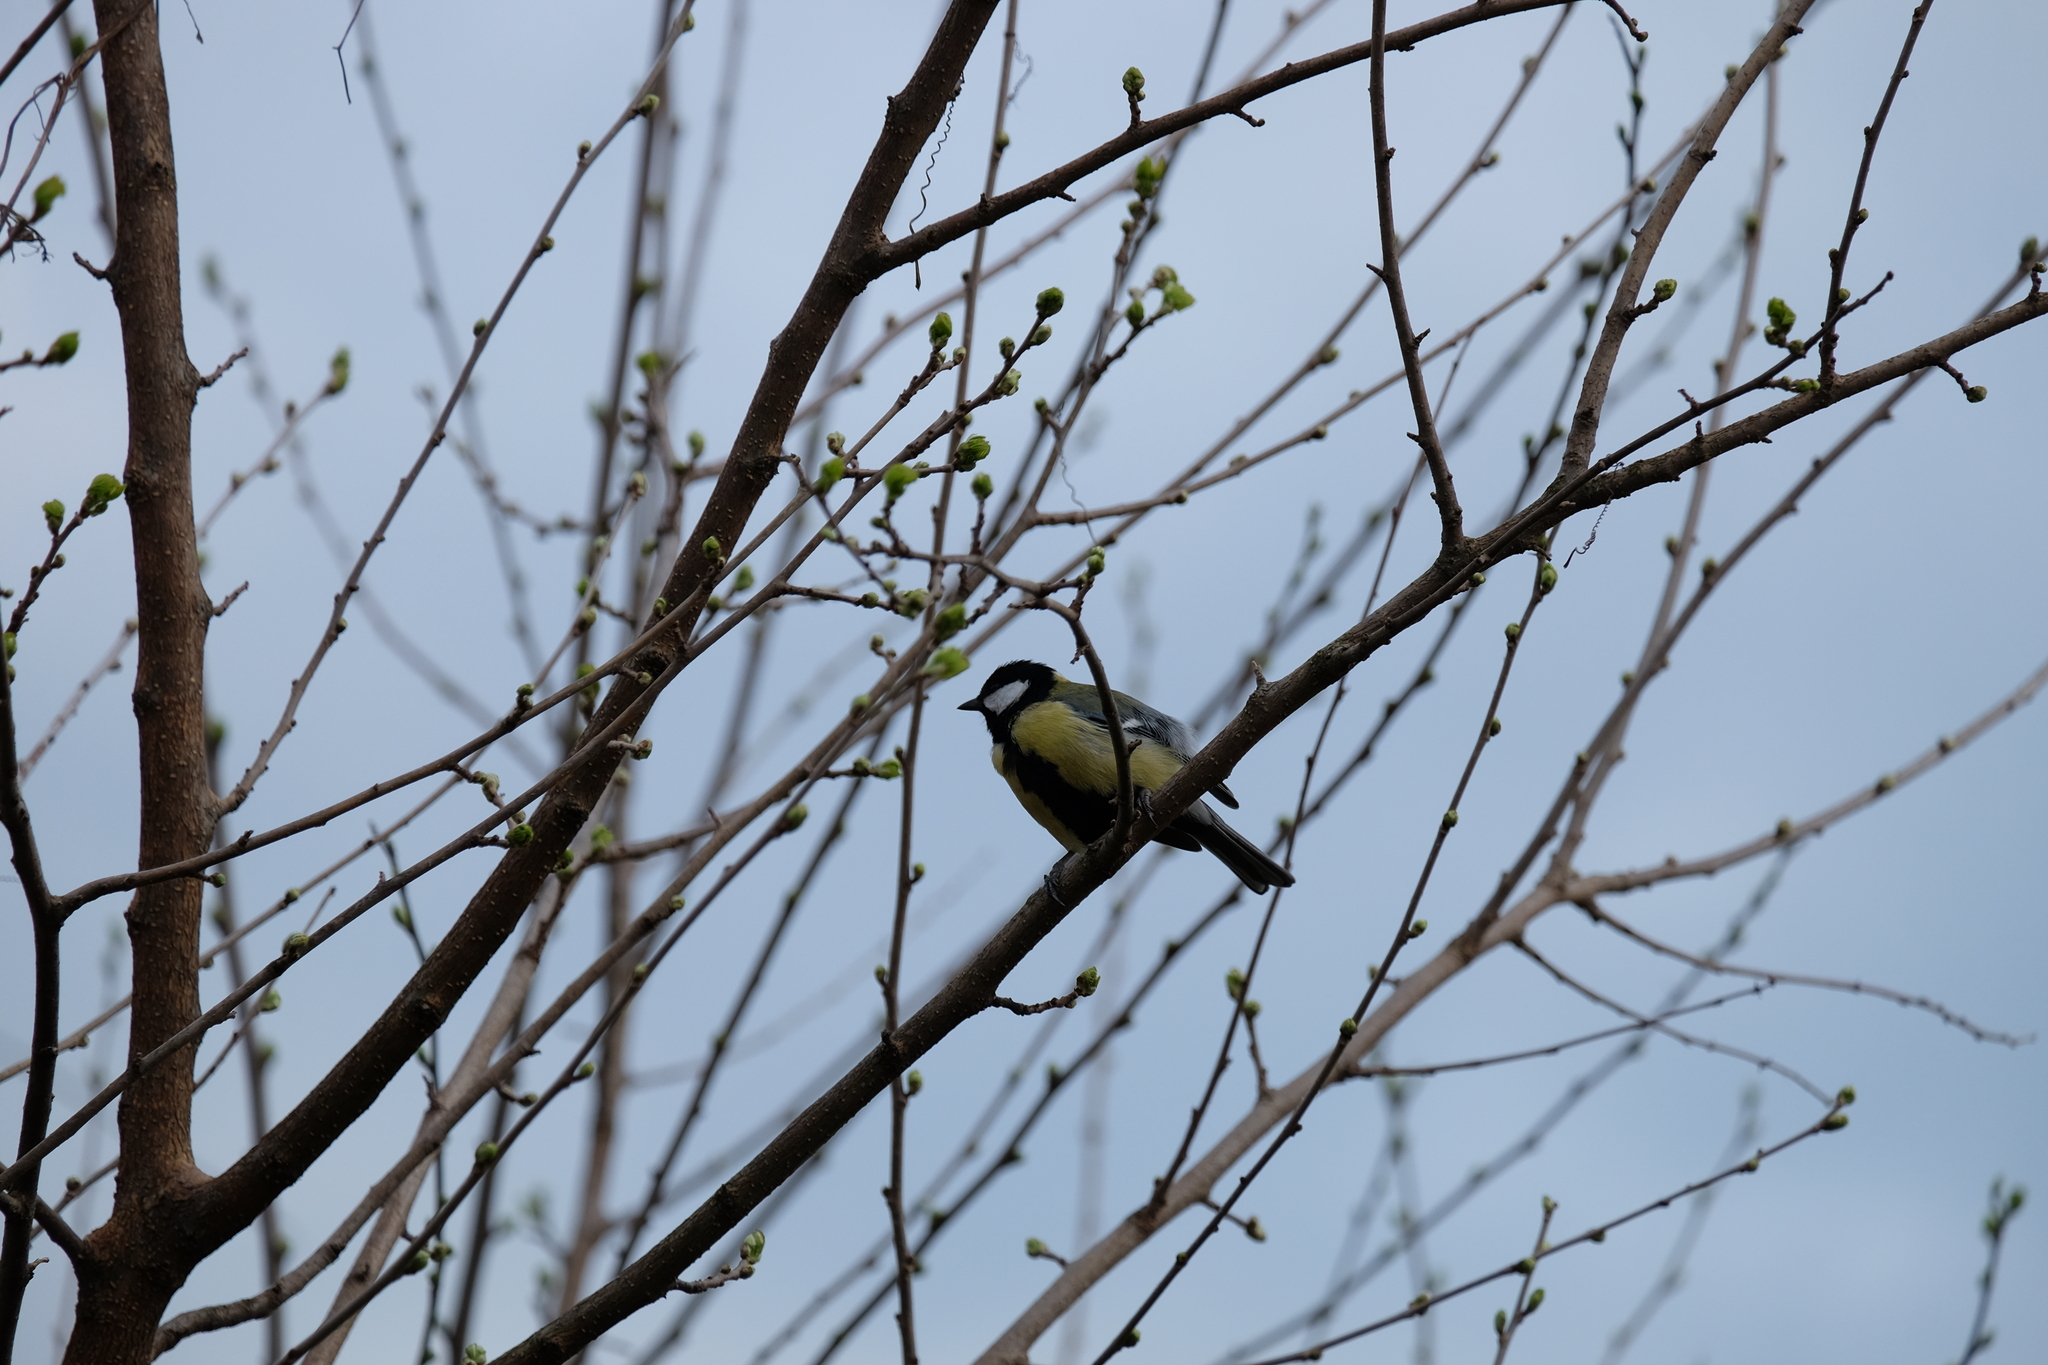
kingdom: Animalia
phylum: Chordata
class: Aves
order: Passeriformes
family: Paridae
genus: Parus
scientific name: Parus major
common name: Great tit
